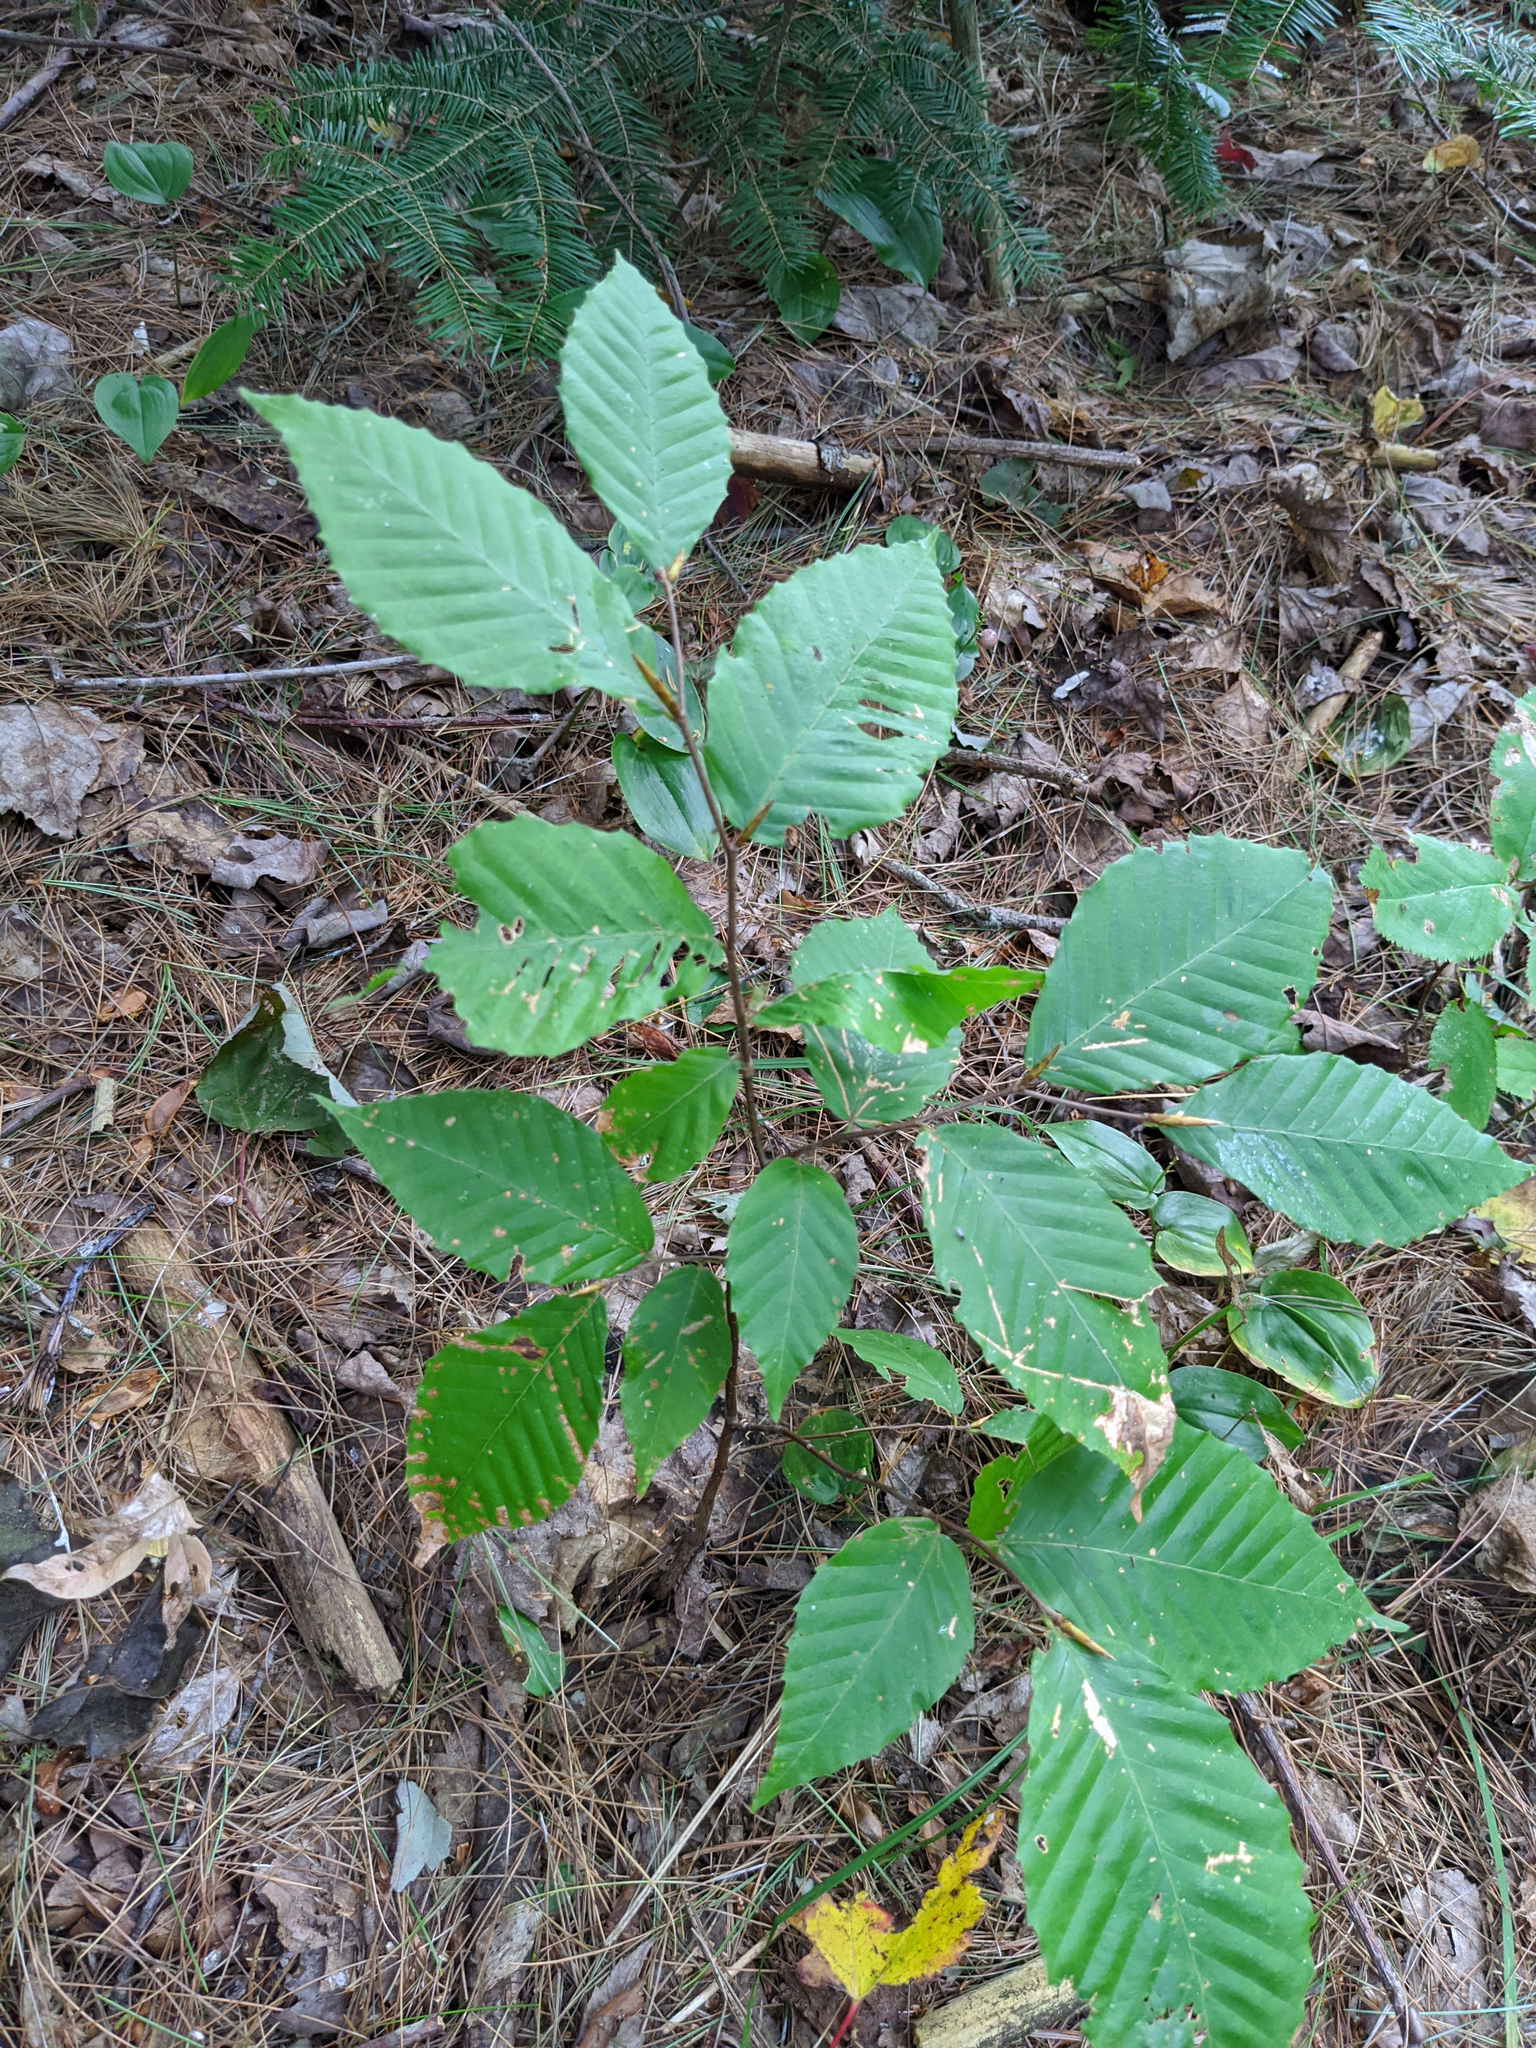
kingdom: Plantae
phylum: Tracheophyta
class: Magnoliopsida
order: Fagales
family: Fagaceae
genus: Fagus
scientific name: Fagus grandifolia
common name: American beech
